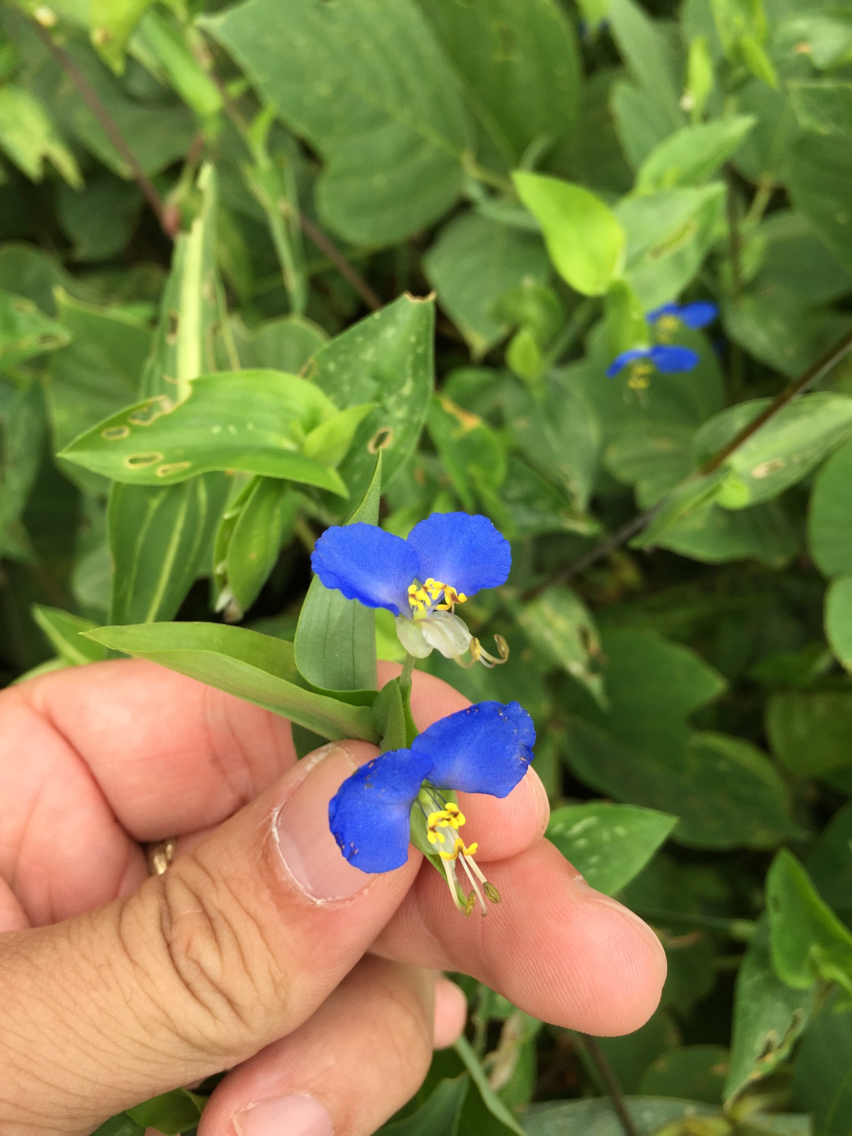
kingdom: Plantae
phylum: Tracheophyta
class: Liliopsida
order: Commelinales
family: Commelinaceae
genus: Commelina
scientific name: Commelina communis
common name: Asiatic dayflower
